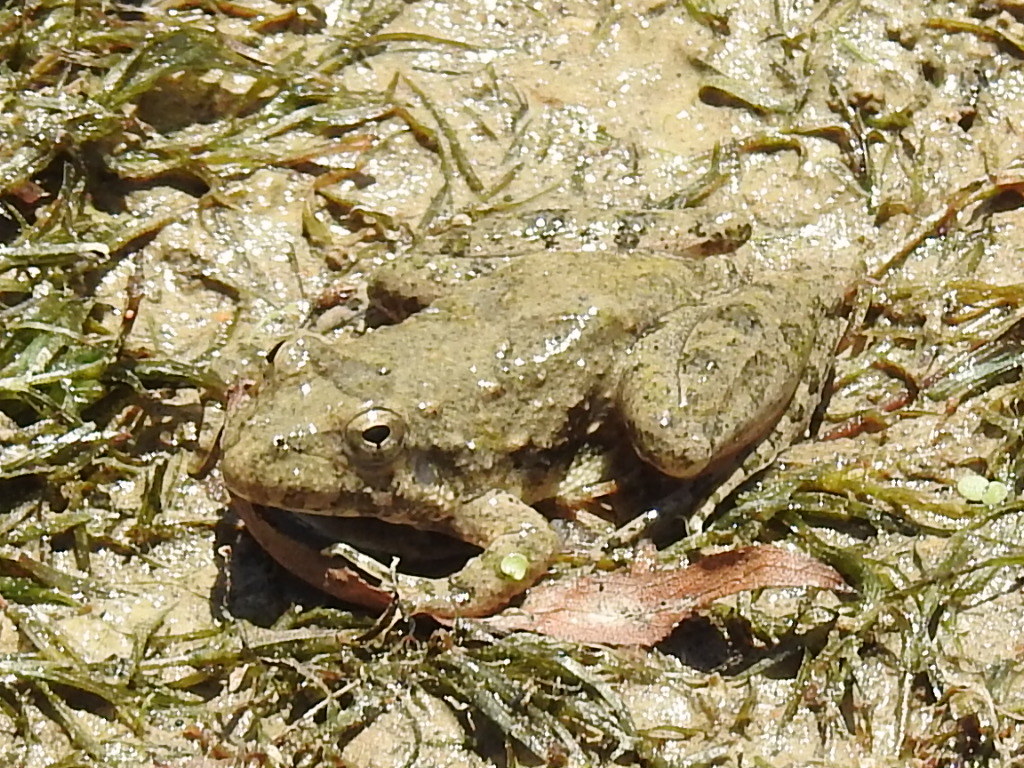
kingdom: Animalia
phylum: Chordata
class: Amphibia
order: Anura
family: Hylidae
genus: Acris
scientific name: Acris blanchardi
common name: Blanchard's cricket frog
